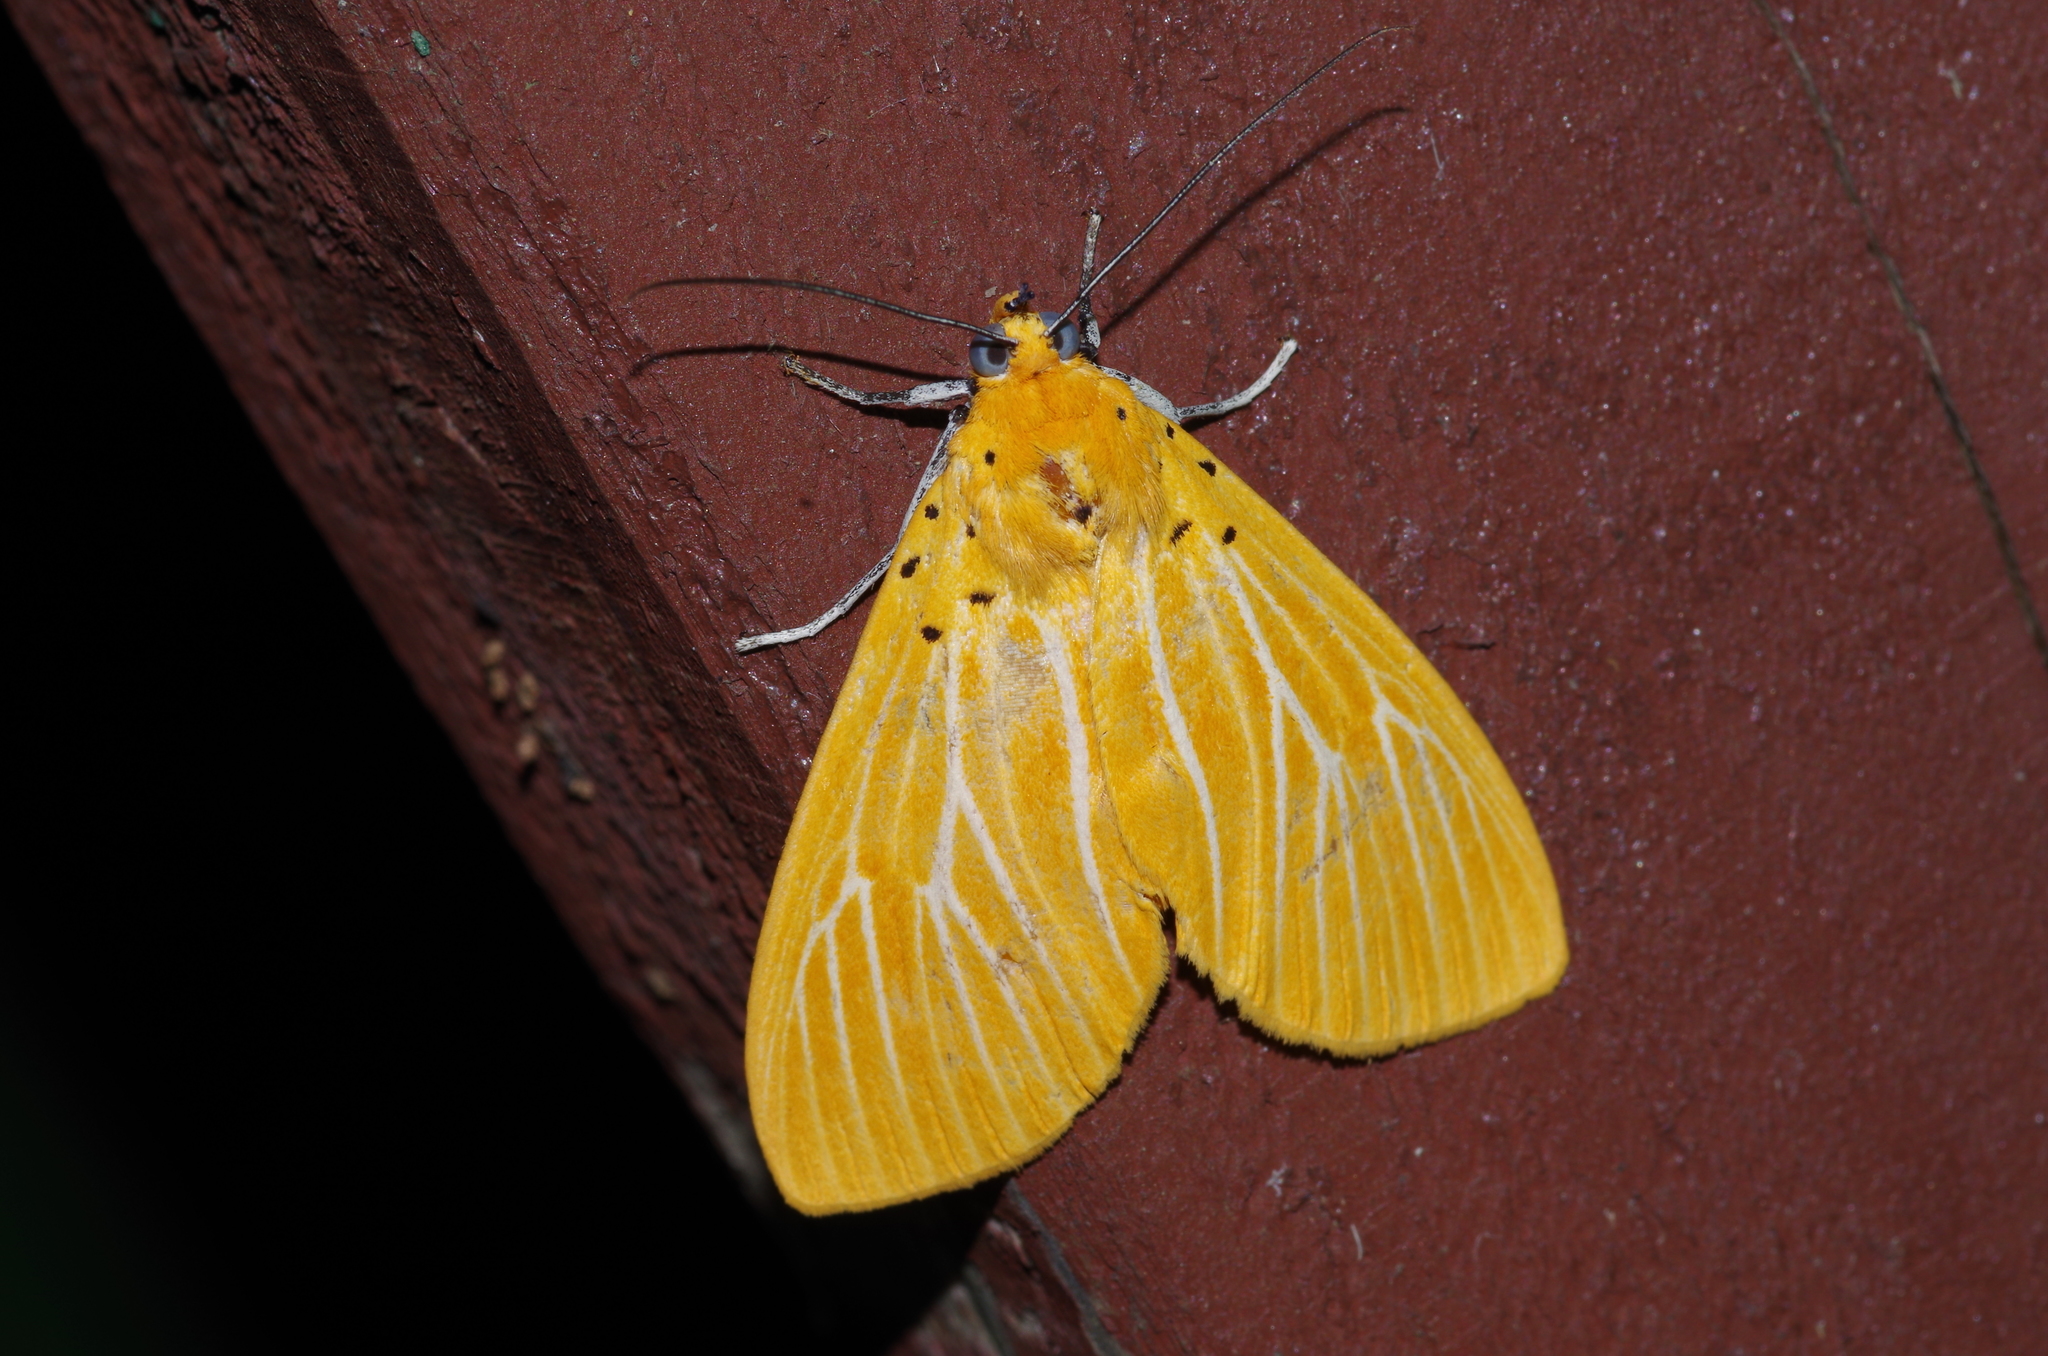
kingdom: Animalia
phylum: Arthropoda
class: Insecta
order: Lepidoptera
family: Erebidae
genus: Asota
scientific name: Asota egens
